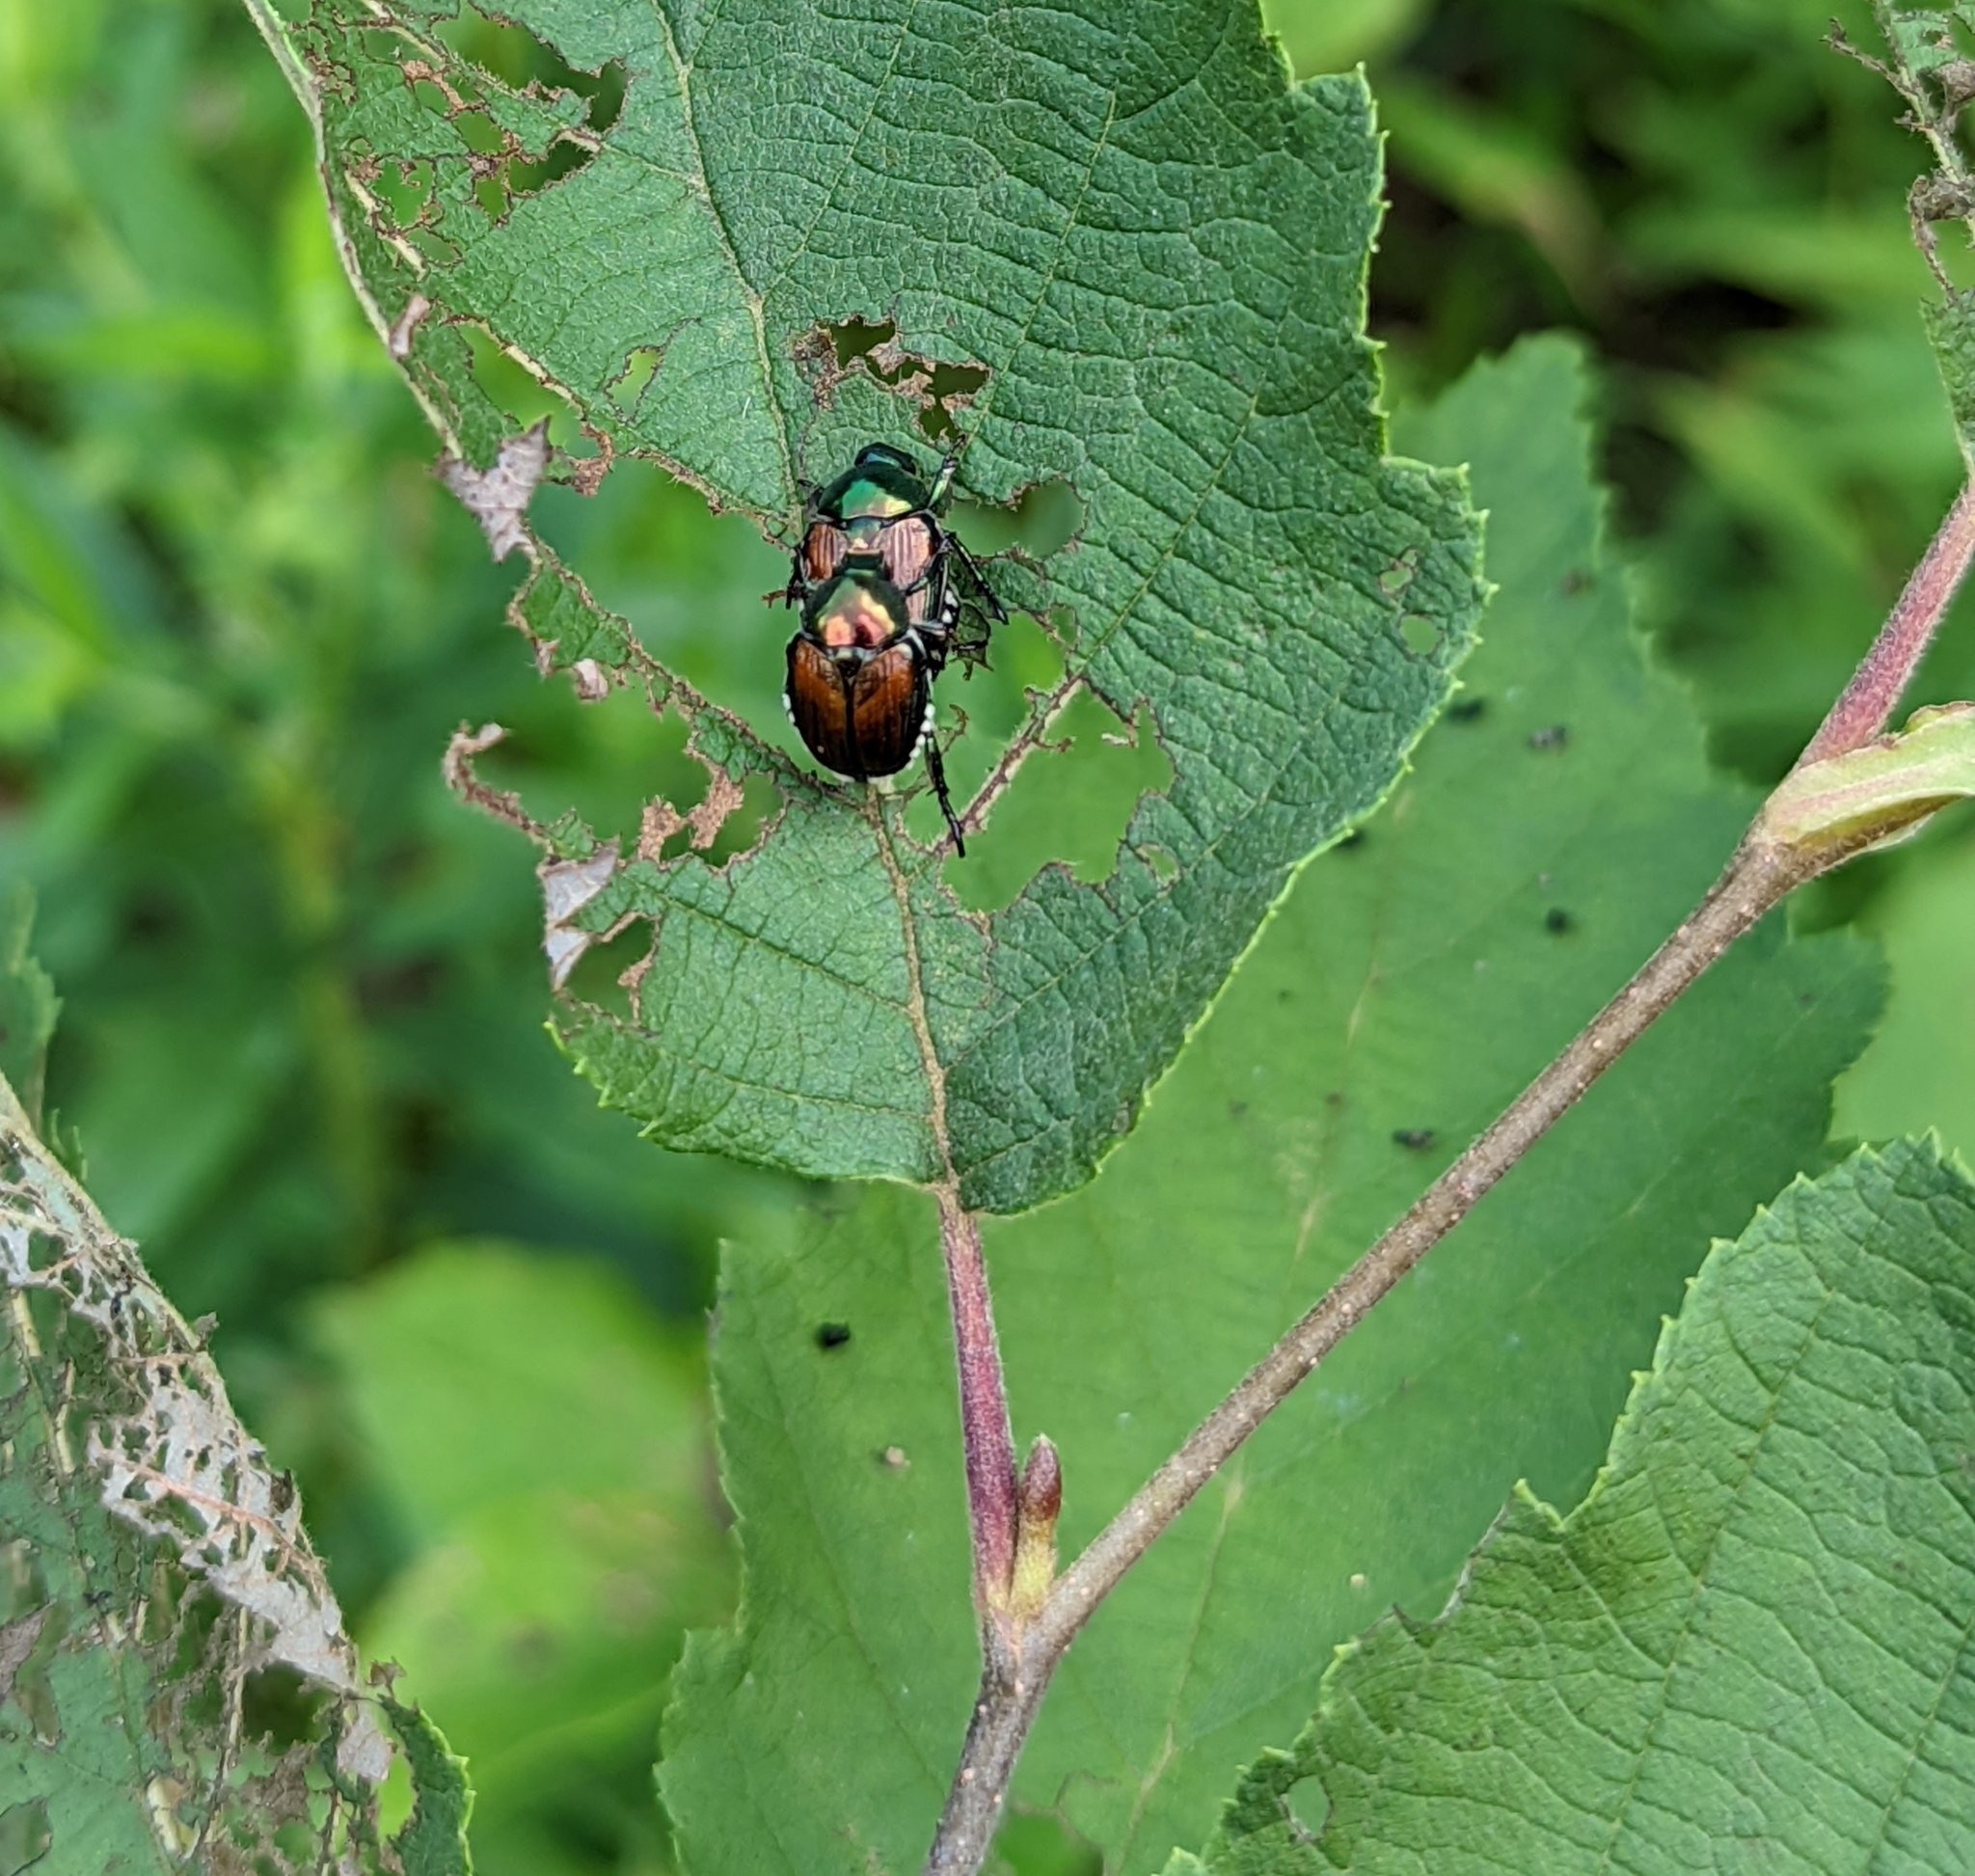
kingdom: Animalia
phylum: Arthropoda
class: Insecta
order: Coleoptera
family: Scarabaeidae
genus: Popillia
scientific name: Popillia japonica
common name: Japanese beetle
